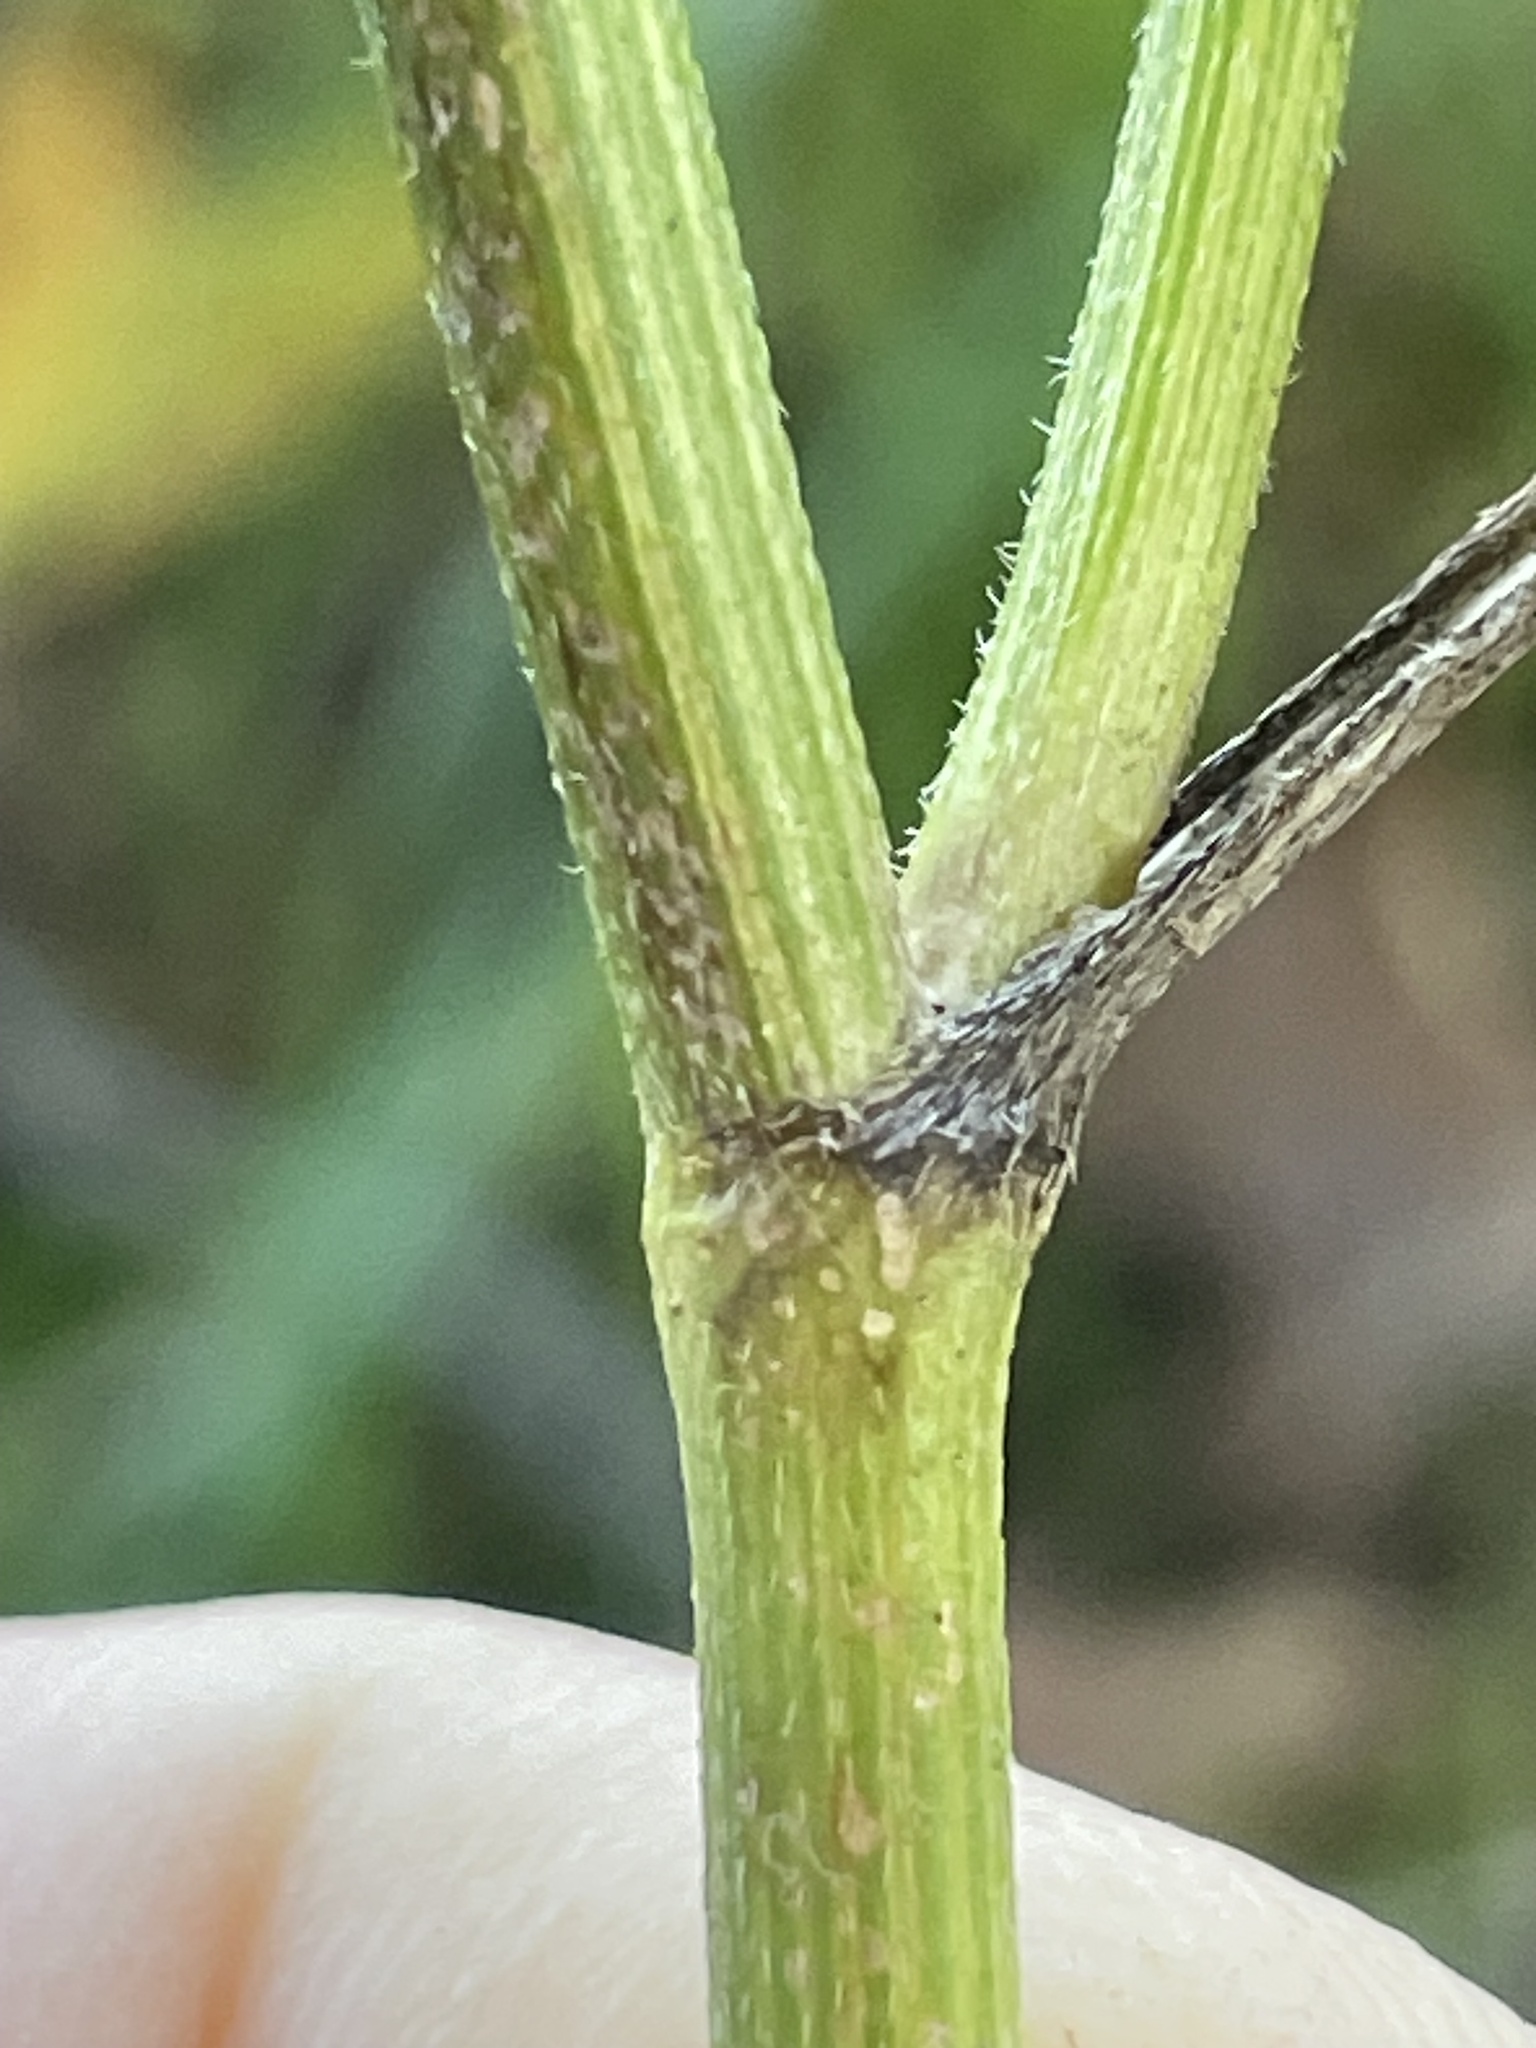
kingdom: Plantae
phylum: Tracheophyta
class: Magnoliopsida
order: Apiales
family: Apiaceae
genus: Torilis
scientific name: Torilis japonica
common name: Upright hedge-parsley
